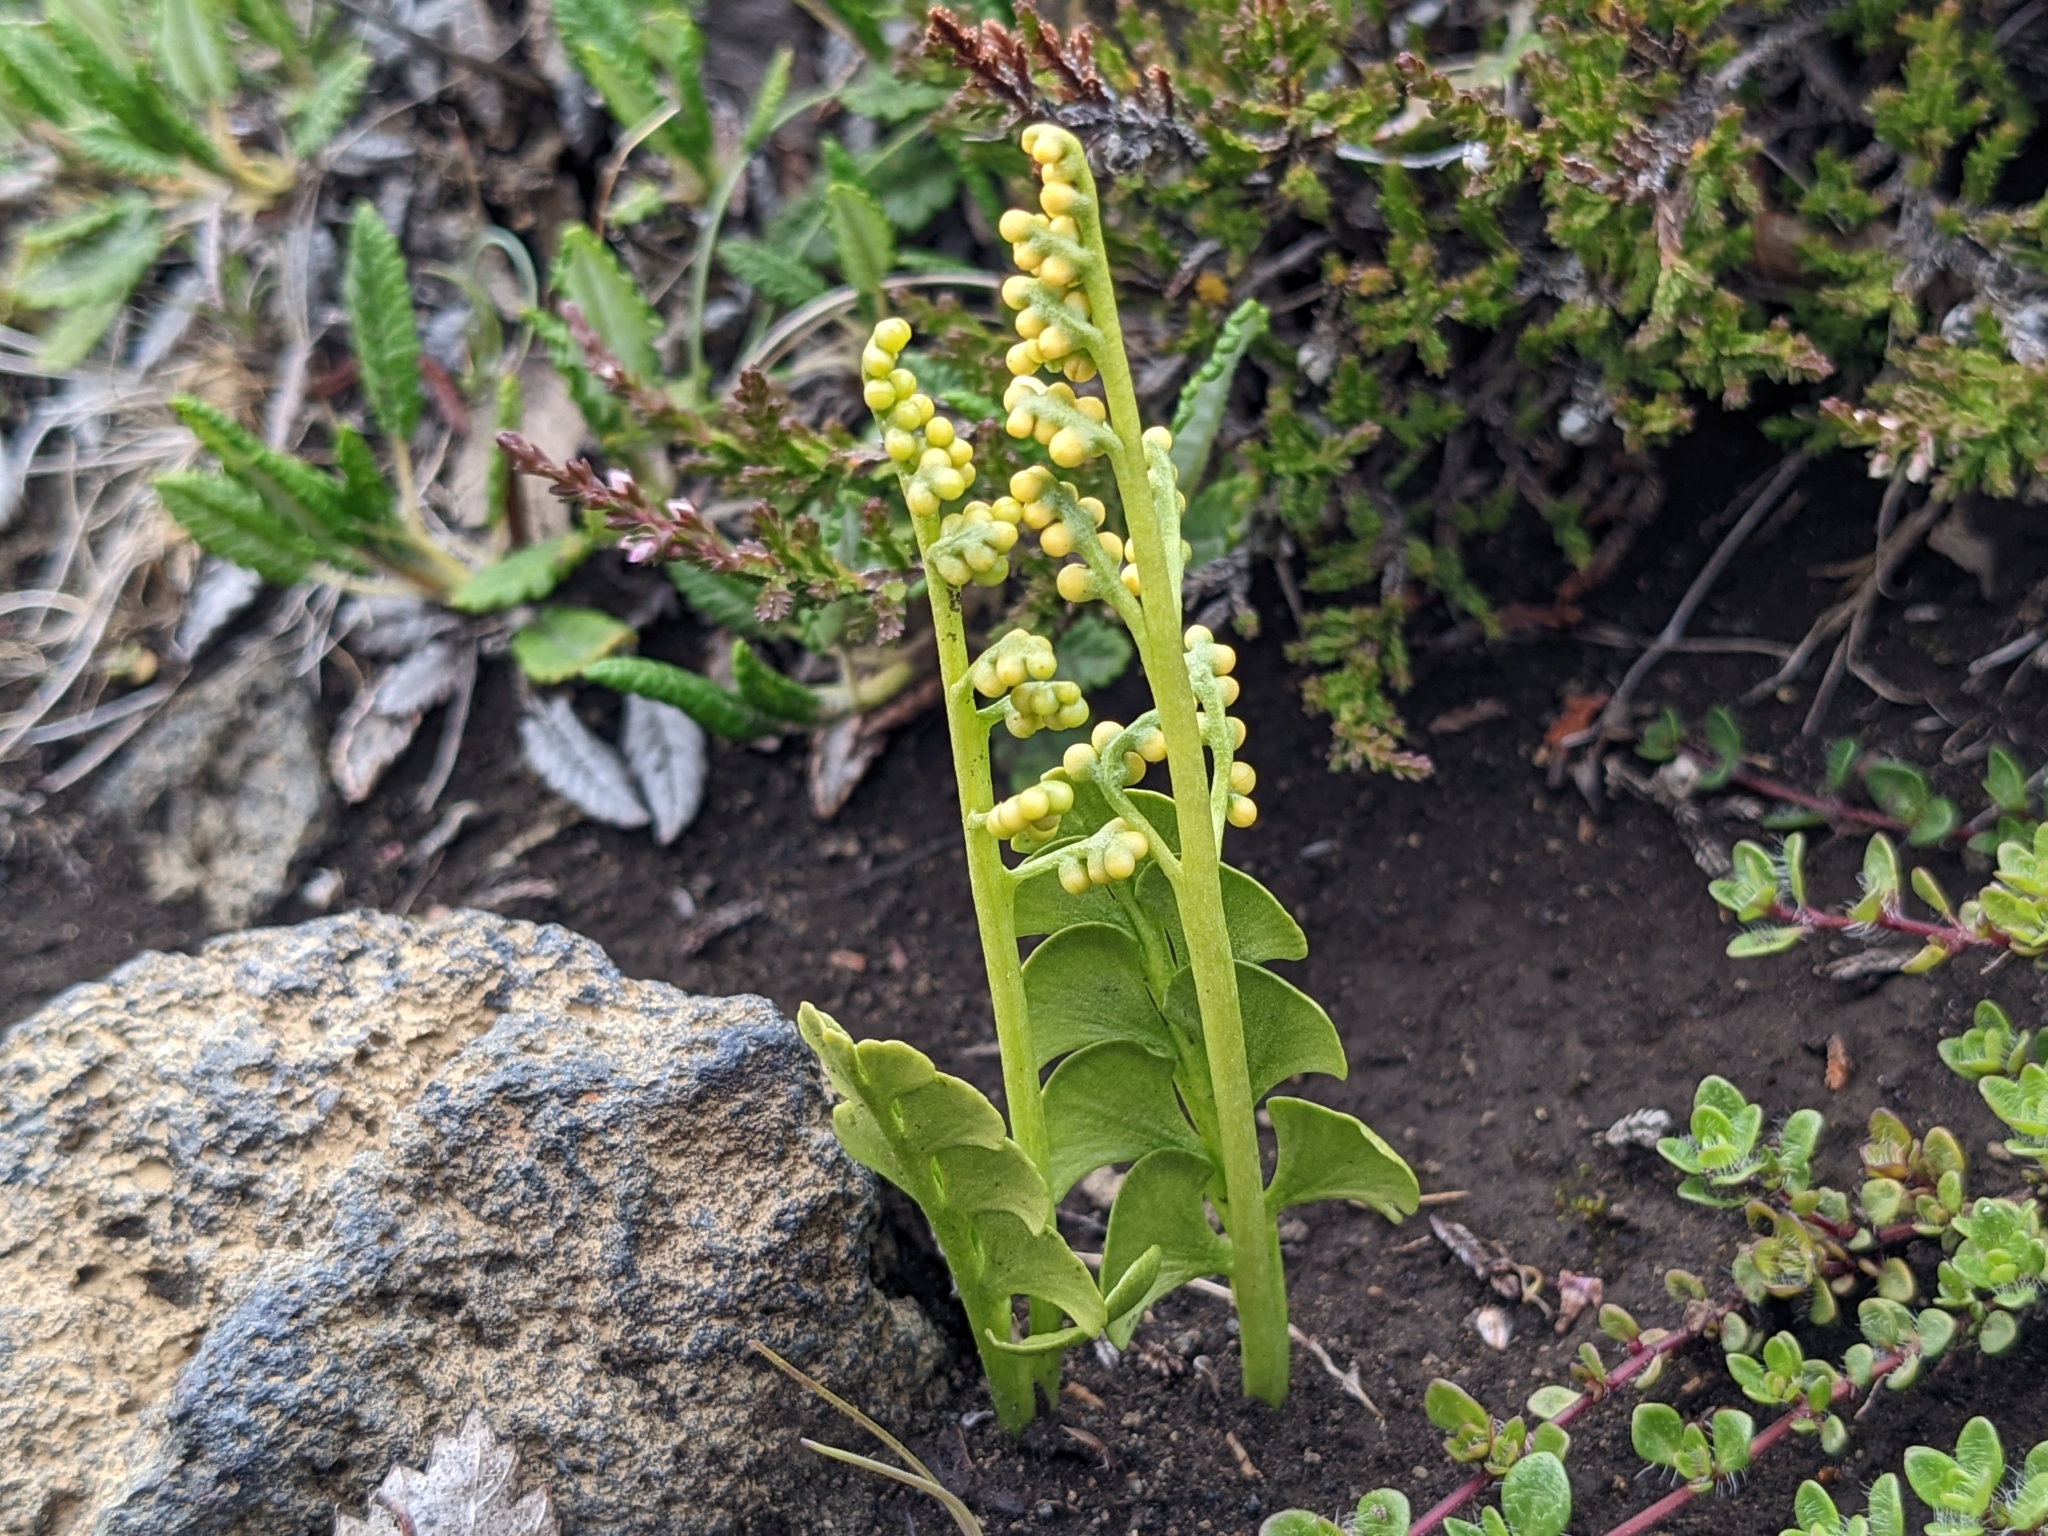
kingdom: Plantae
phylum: Tracheophyta
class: Polypodiopsida
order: Ophioglossales
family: Ophioglossaceae
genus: Botrychium
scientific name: Botrychium lunaria
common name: Moonwort
